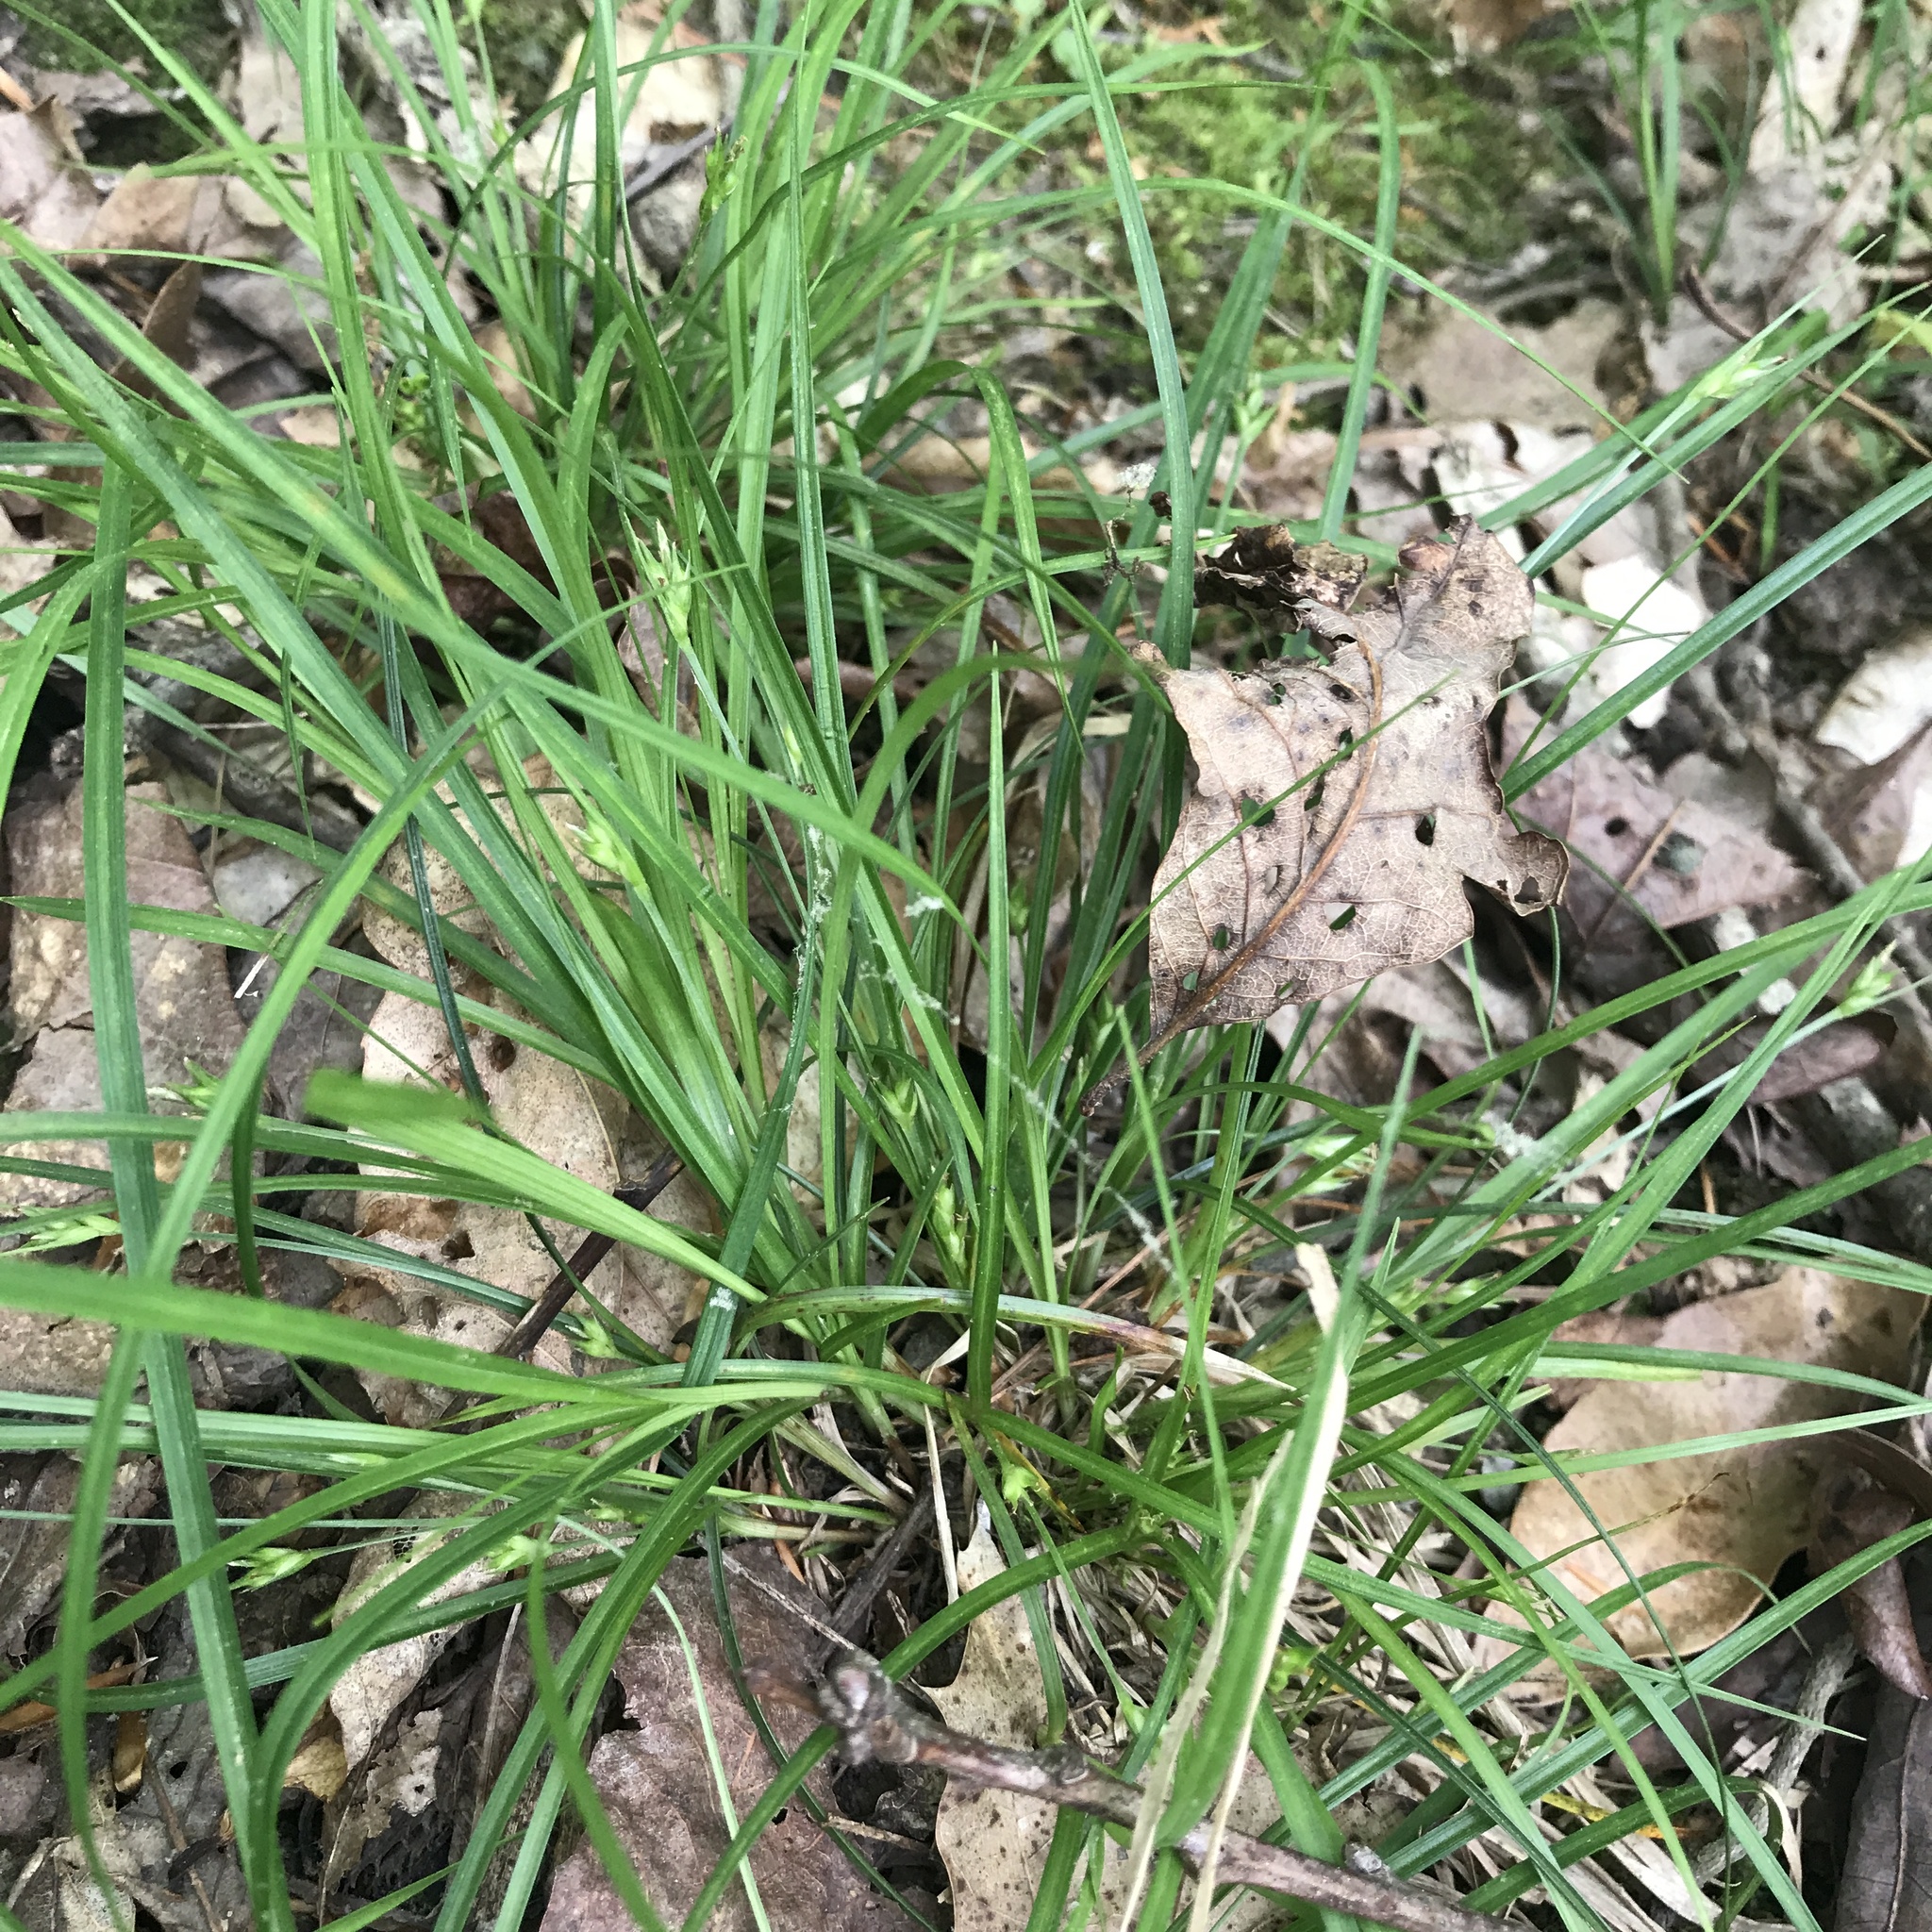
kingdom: Plantae
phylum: Tracheophyta
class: Liliopsida
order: Poales
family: Cyperaceae
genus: Carex
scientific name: Carex willdenowii
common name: Willdenow's sedge
